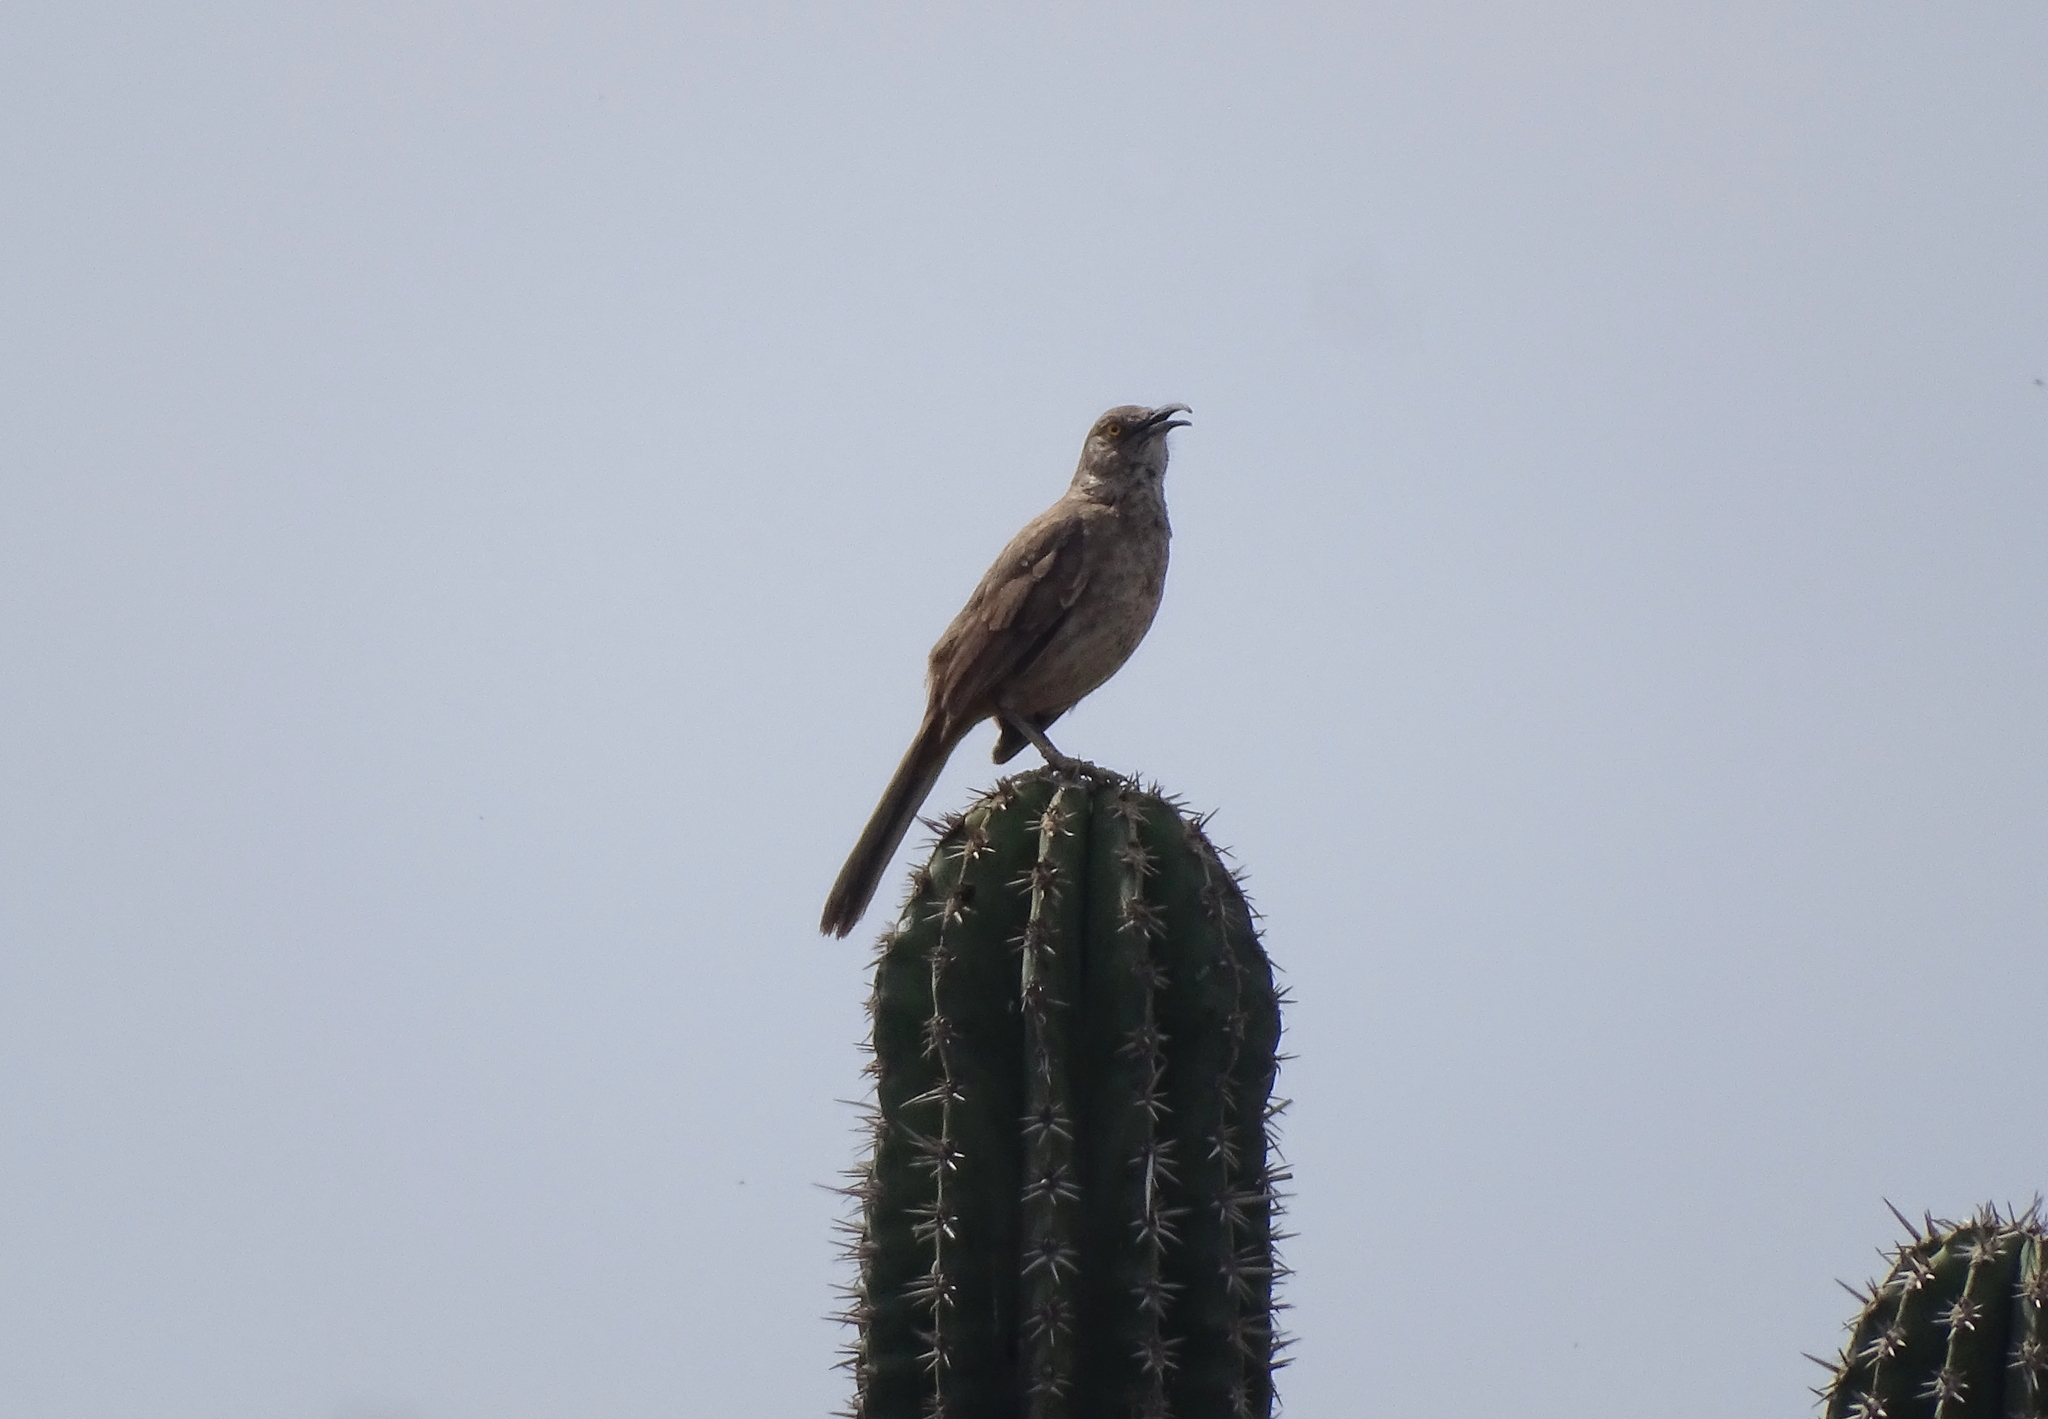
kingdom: Animalia
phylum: Chordata
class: Aves
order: Passeriformes
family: Mimidae
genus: Toxostoma
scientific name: Toxostoma curvirostre
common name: Curve-billed thrasher
